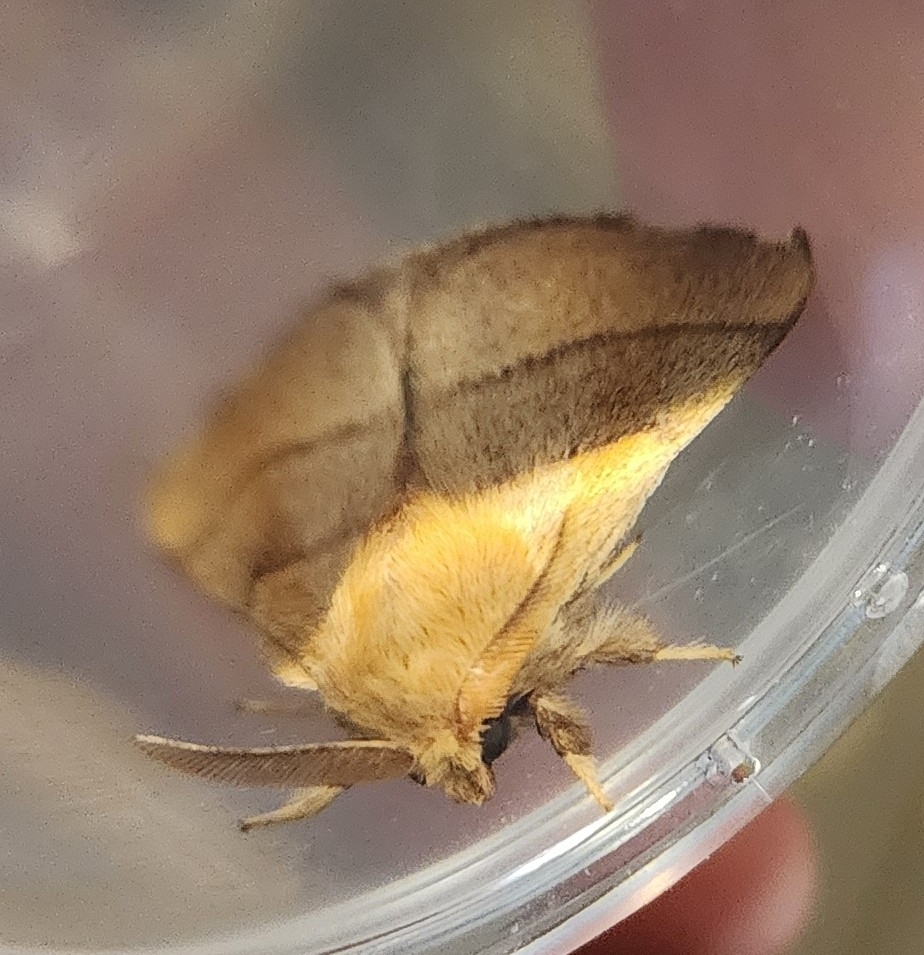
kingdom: Animalia
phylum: Arthropoda
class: Insecta
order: Lepidoptera
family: Lasiocampidae
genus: Malacosoma
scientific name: Malacosoma disstria
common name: Forest tent caterpillar
